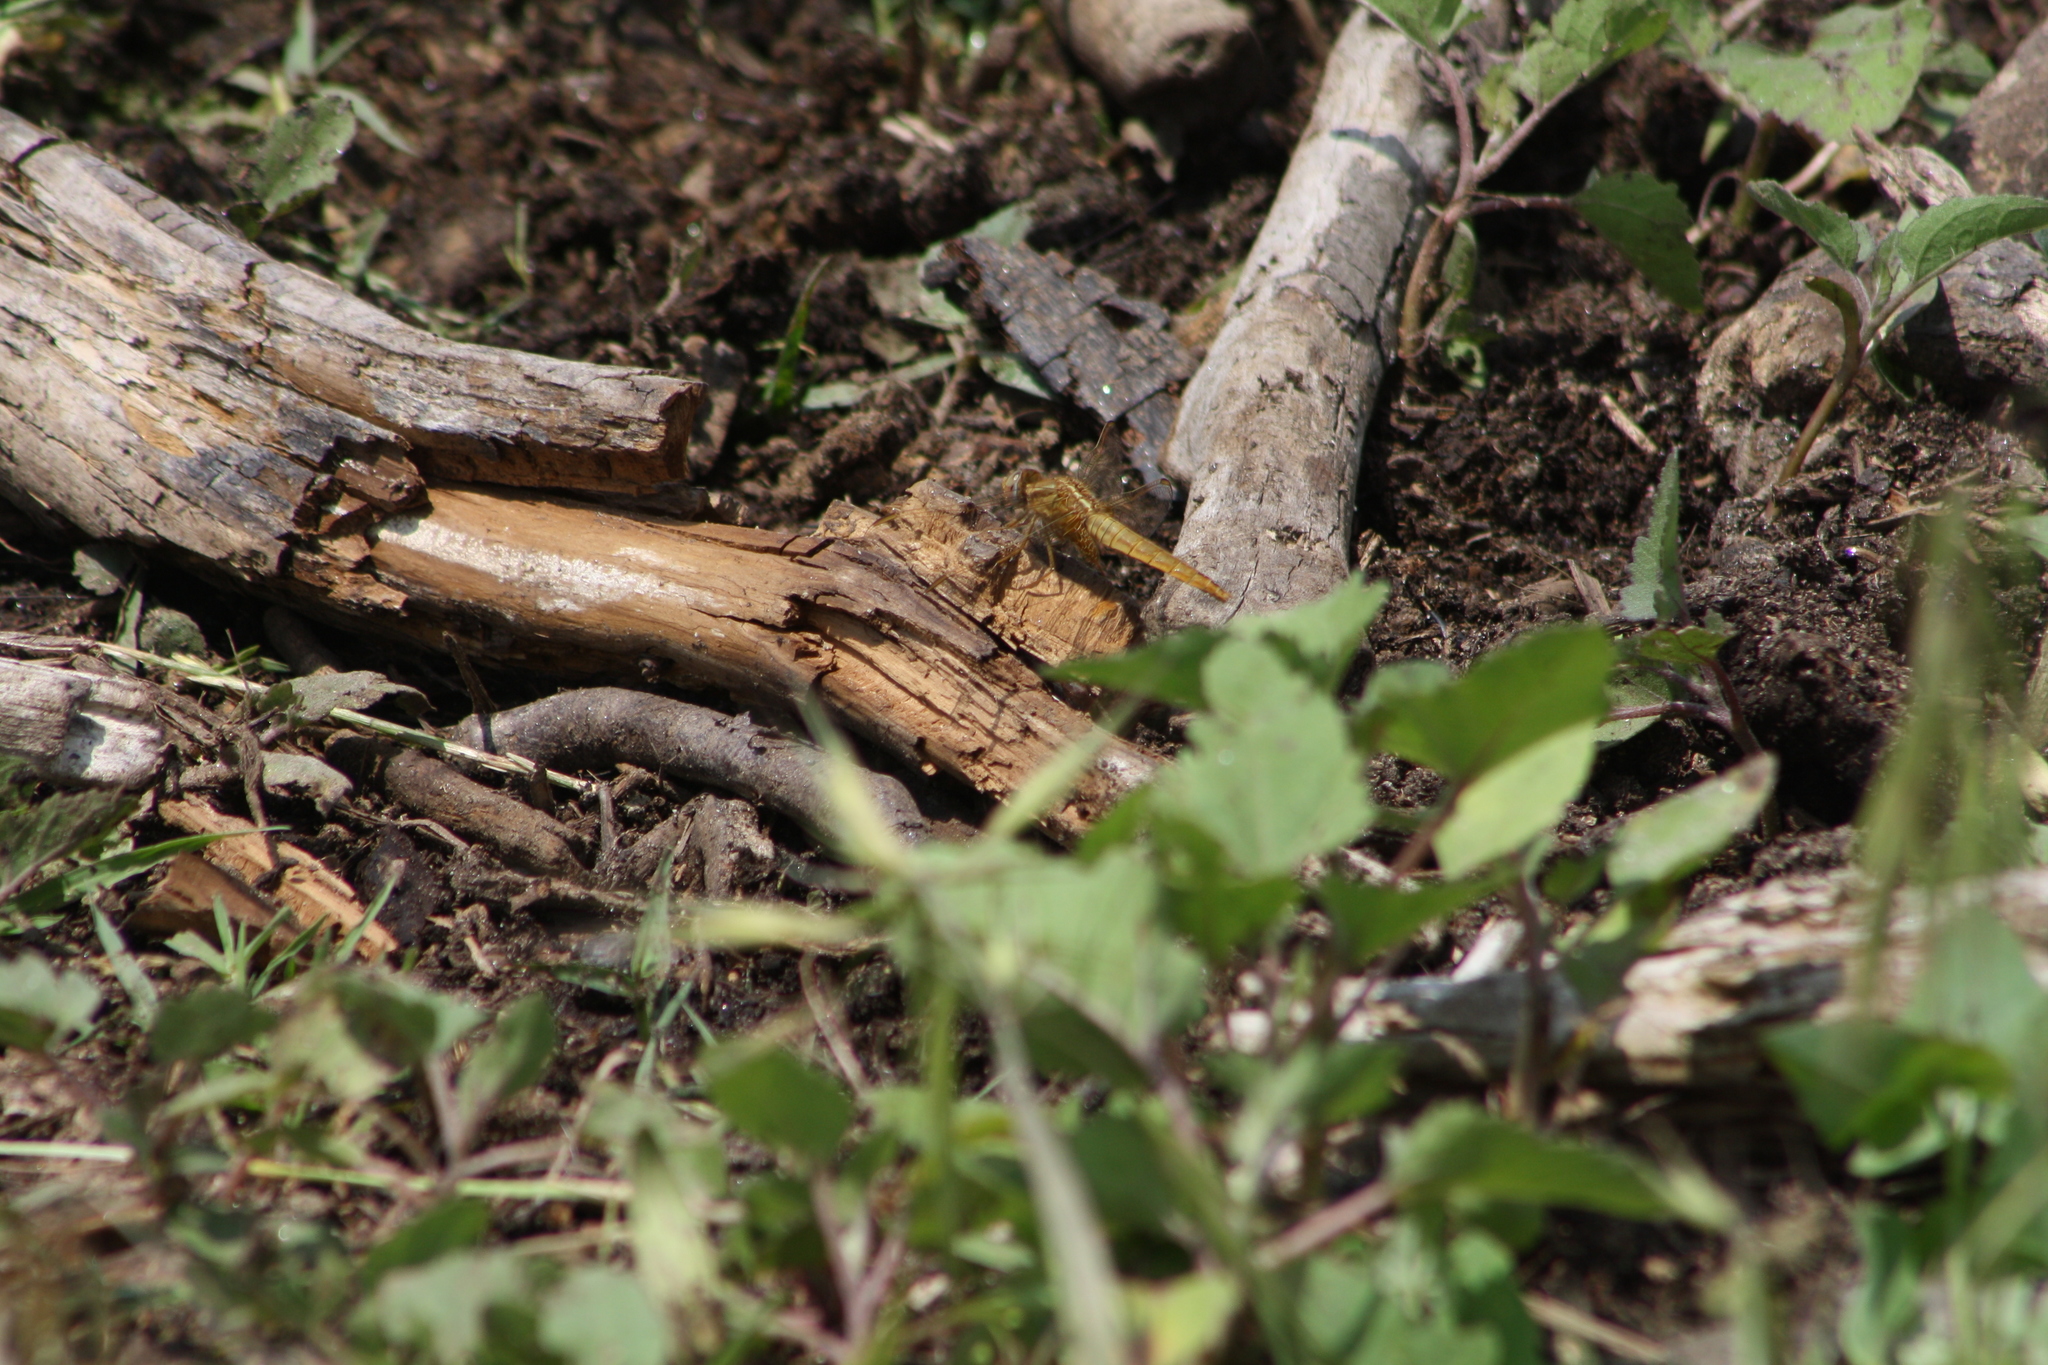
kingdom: Animalia
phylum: Arthropoda
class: Insecta
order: Odonata
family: Libellulidae
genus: Crocothemis
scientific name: Crocothemis erythraea
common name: Scarlet dragonfly
